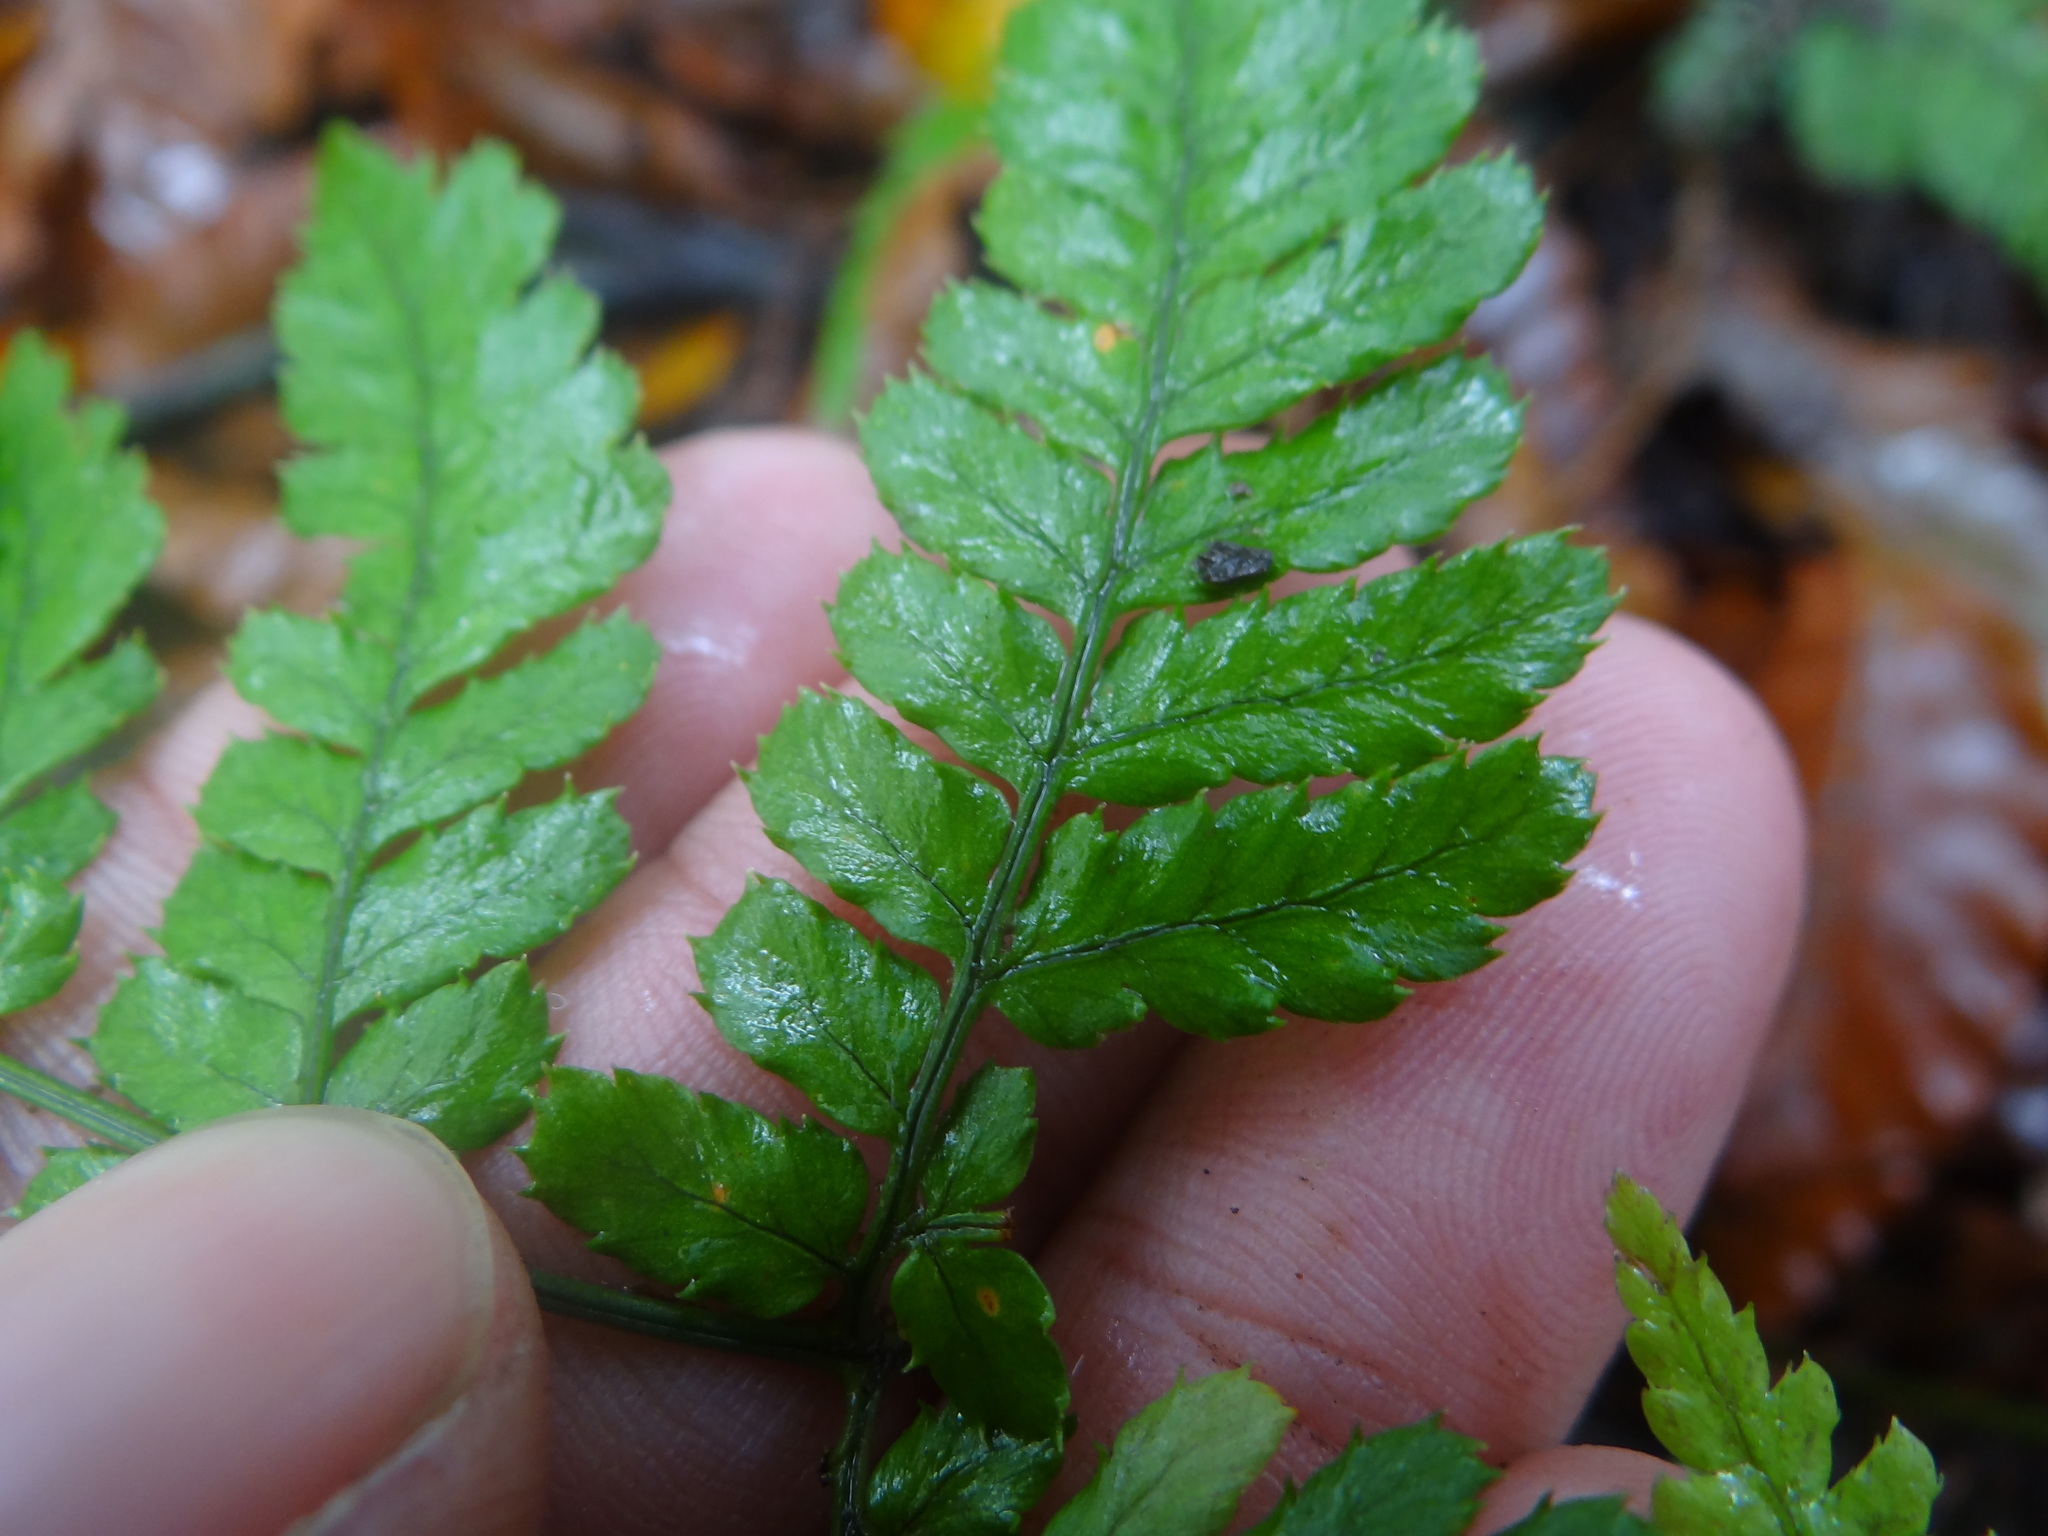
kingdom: Plantae
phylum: Tracheophyta
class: Polypodiopsida
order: Polypodiales
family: Dryopteridaceae
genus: Dryopteris
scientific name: Dryopteris formosana
